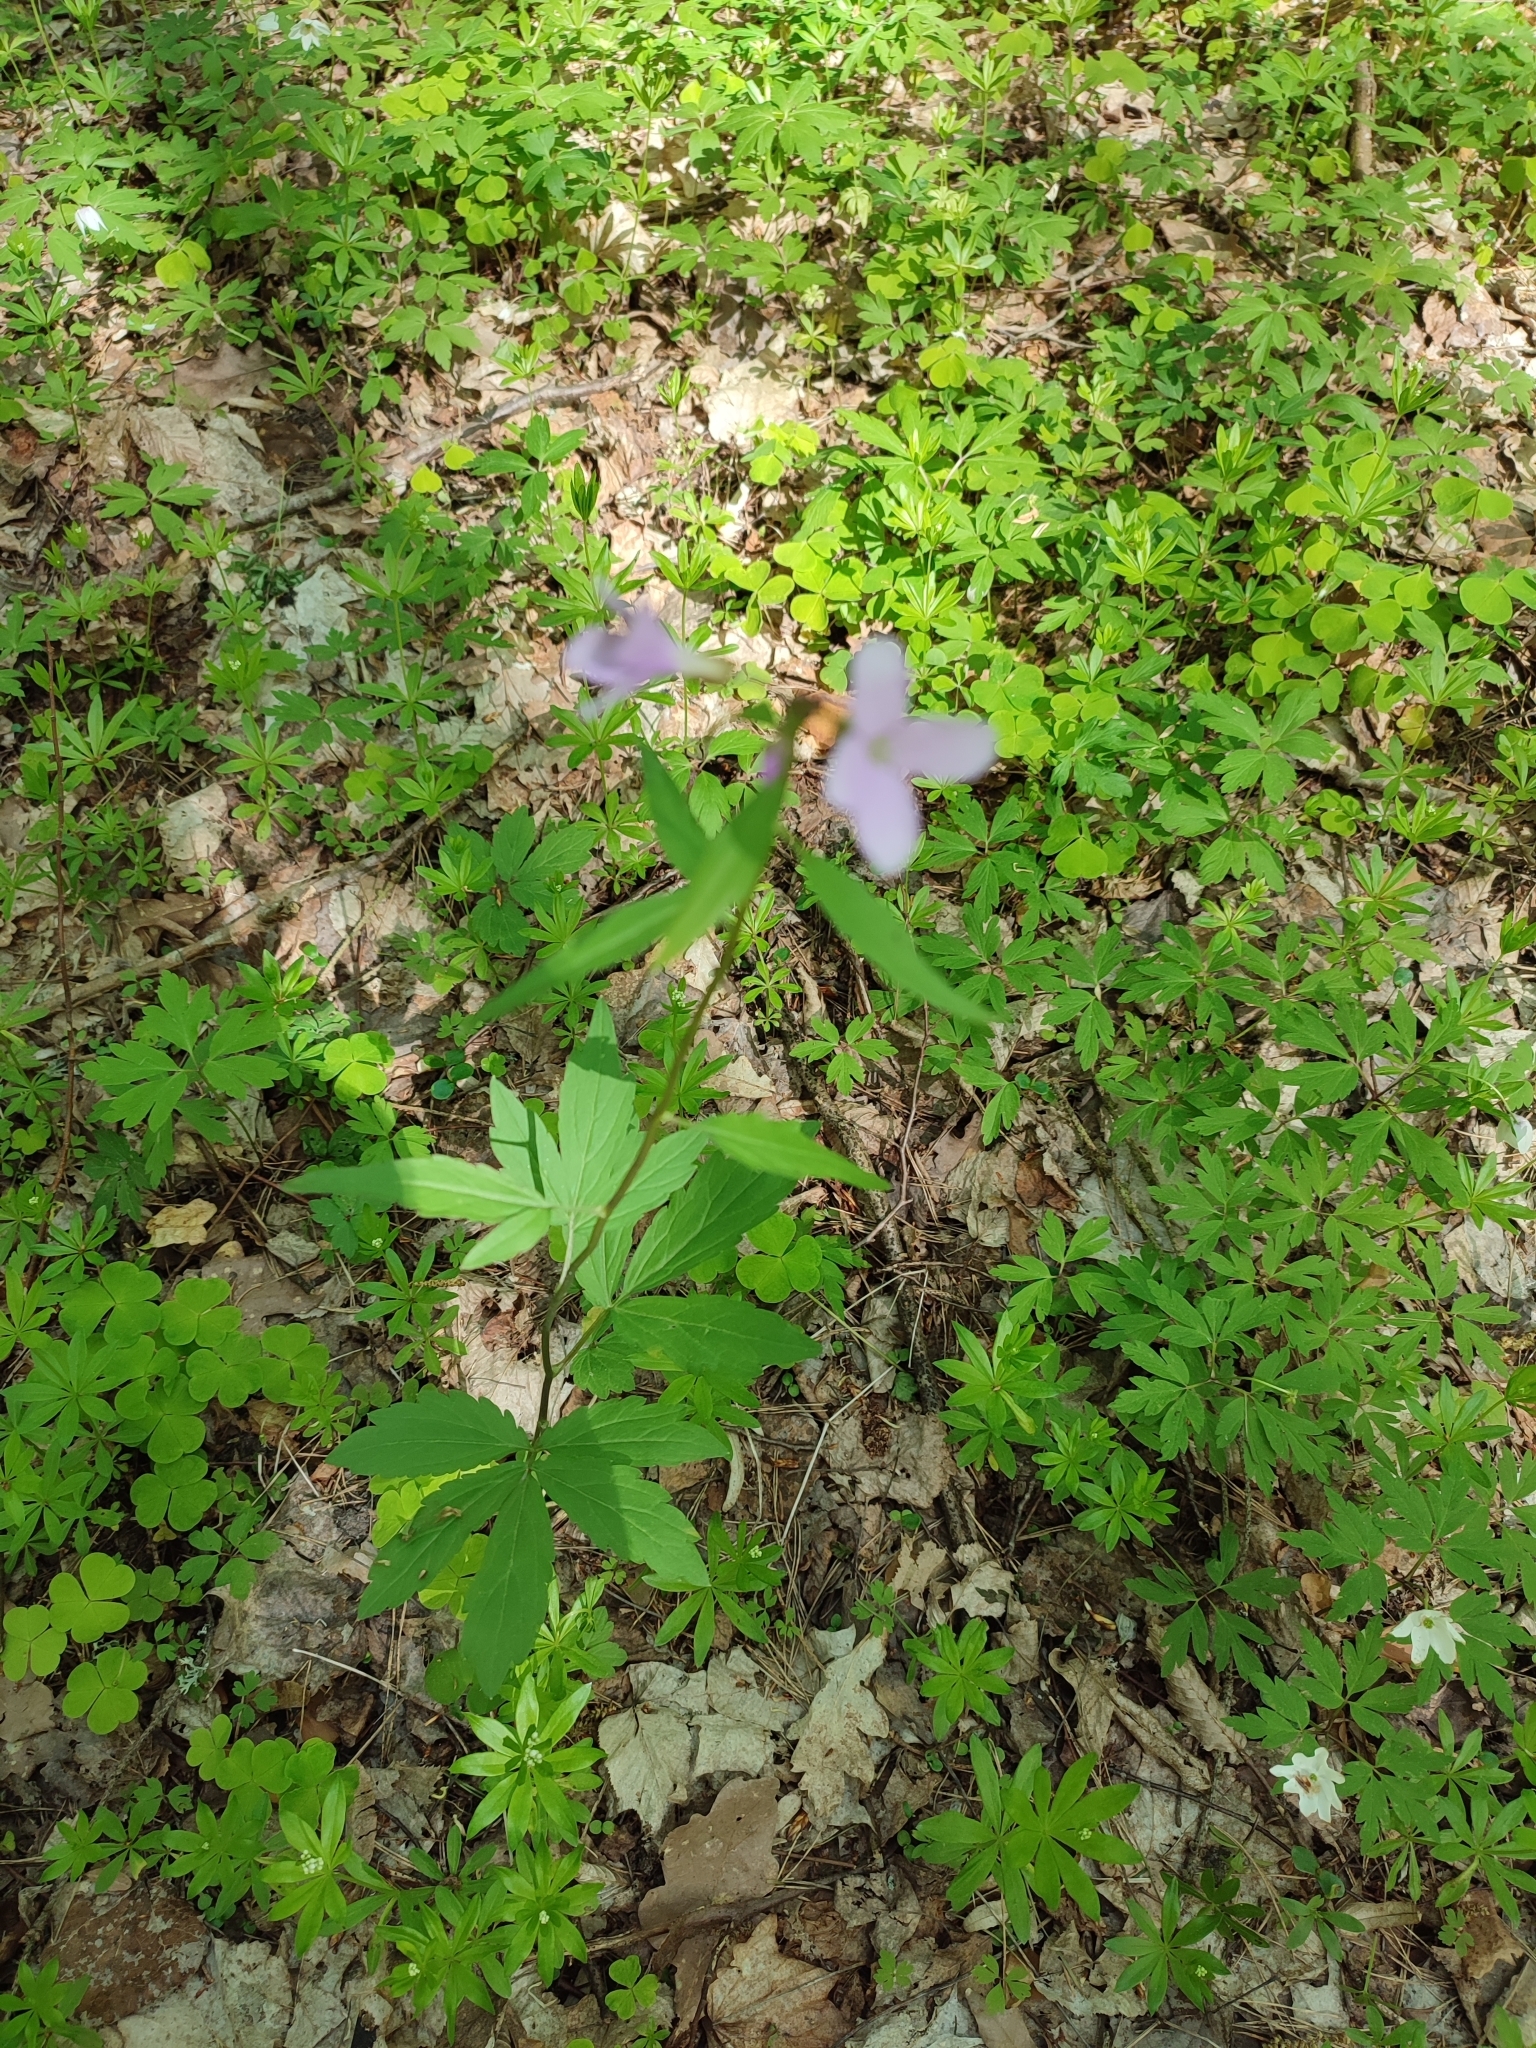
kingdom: Plantae
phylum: Tracheophyta
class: Magnoliopsida
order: Brassicales
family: Brassicaceae
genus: Cardamine
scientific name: Cardamine bulbifera
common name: Coralroot bittercress
